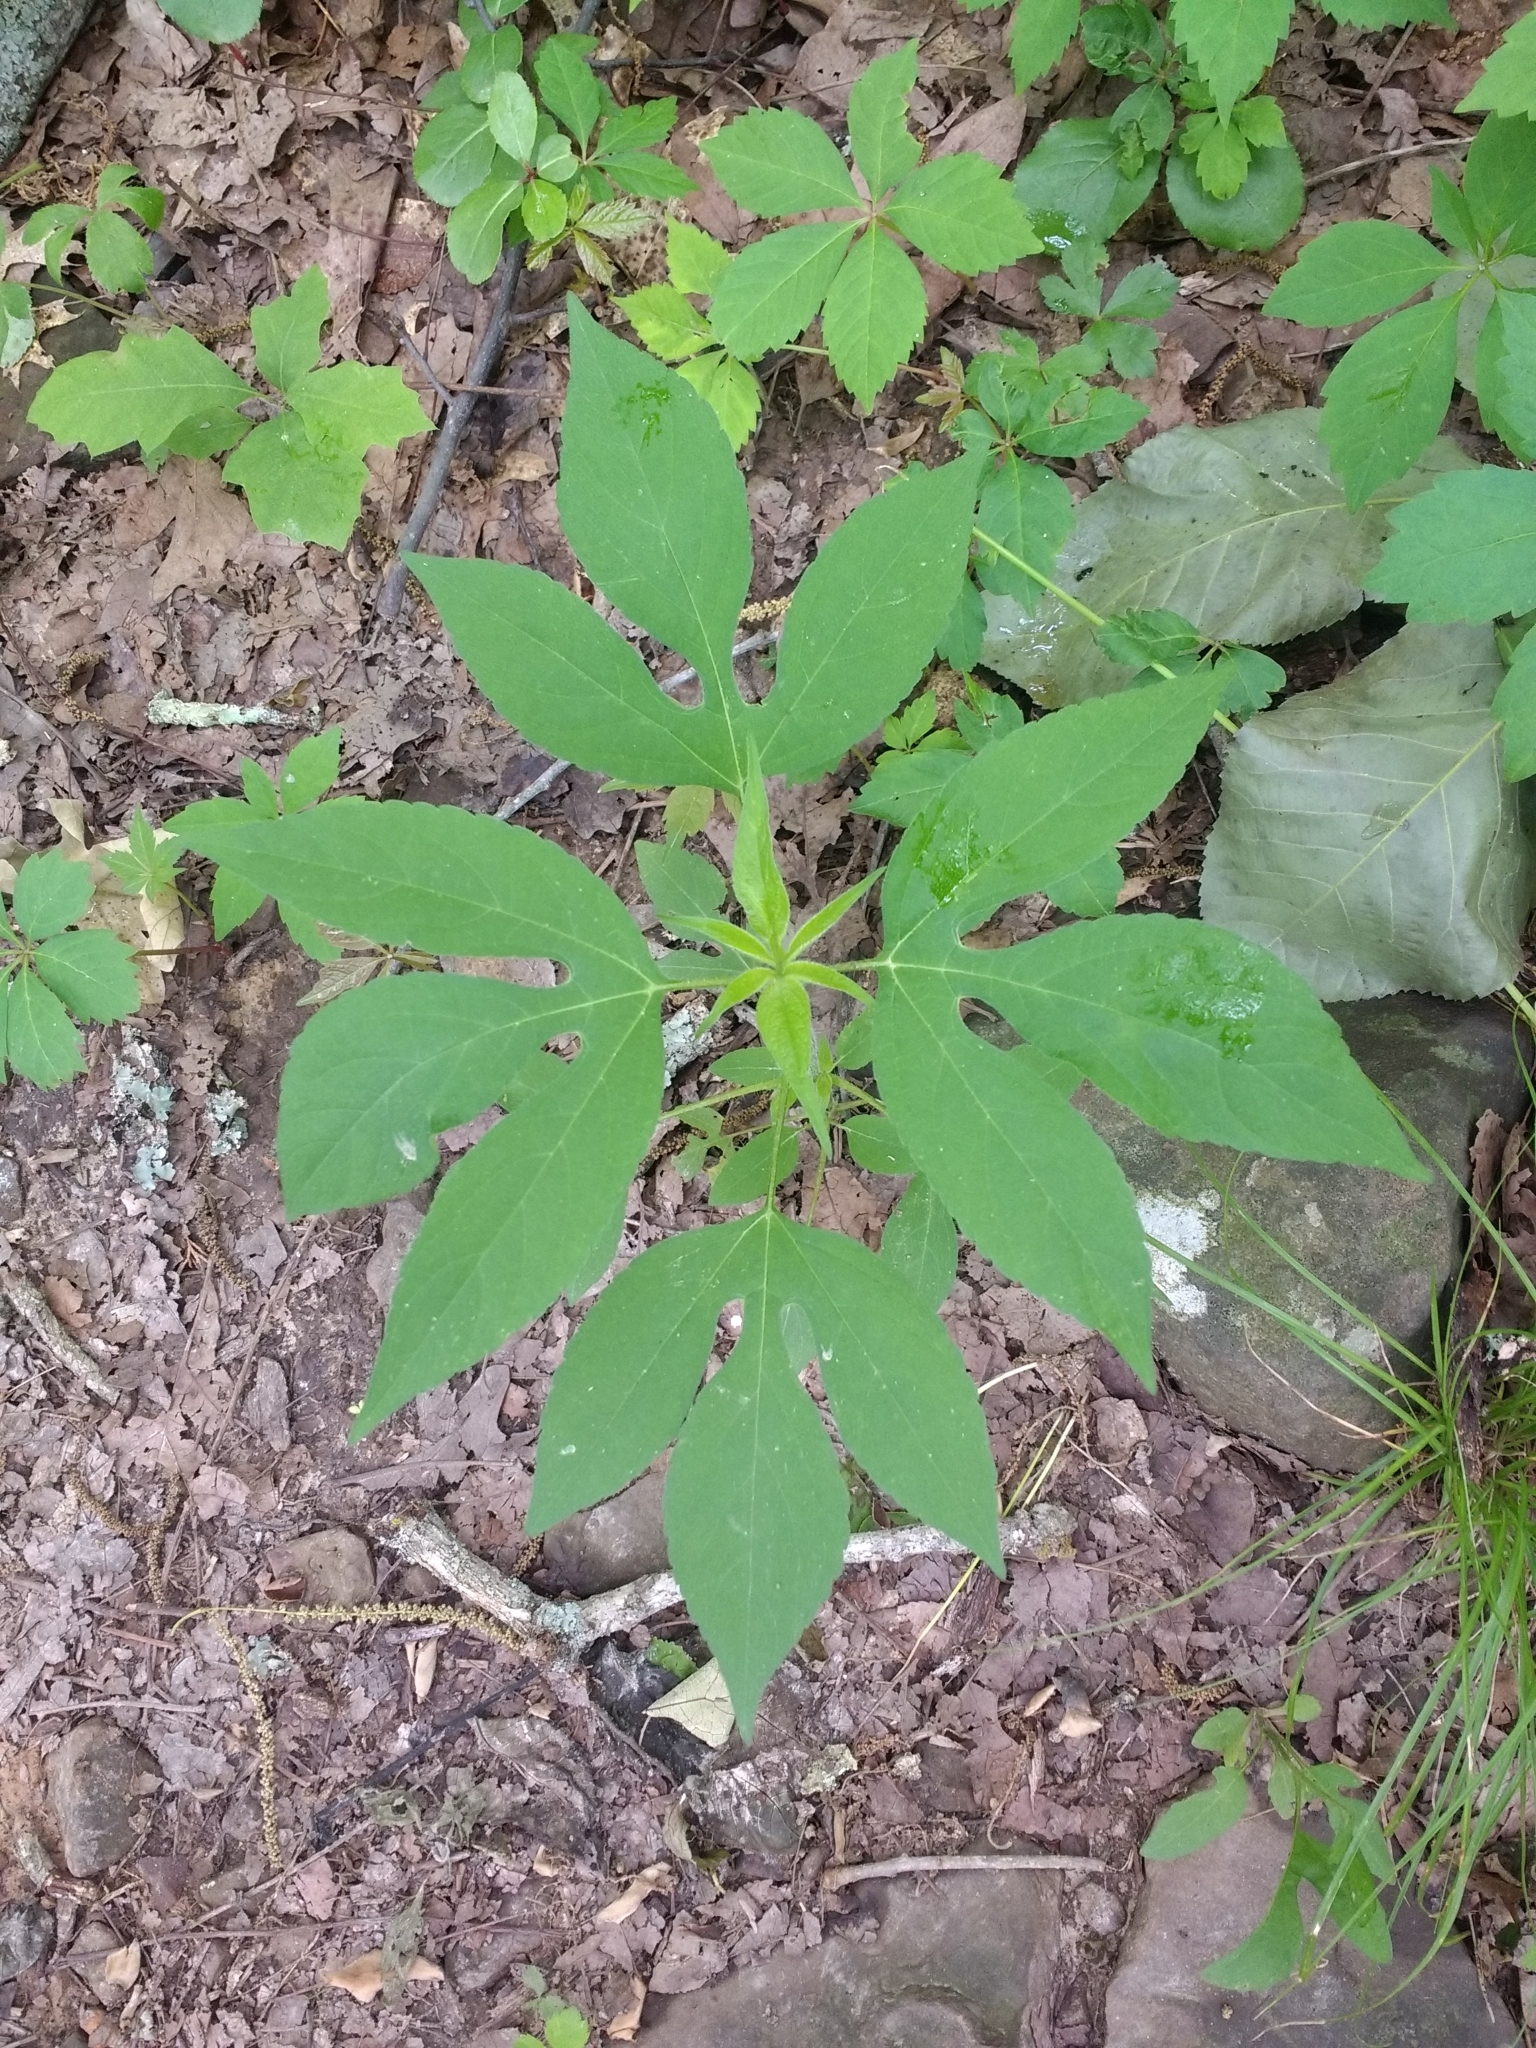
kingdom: Plantae
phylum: Tracheophyta
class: Magnoliopsida
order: Asterales
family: Asteraceae
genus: Ambrosia
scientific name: Ambrosia trifida
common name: Giant ragweed
